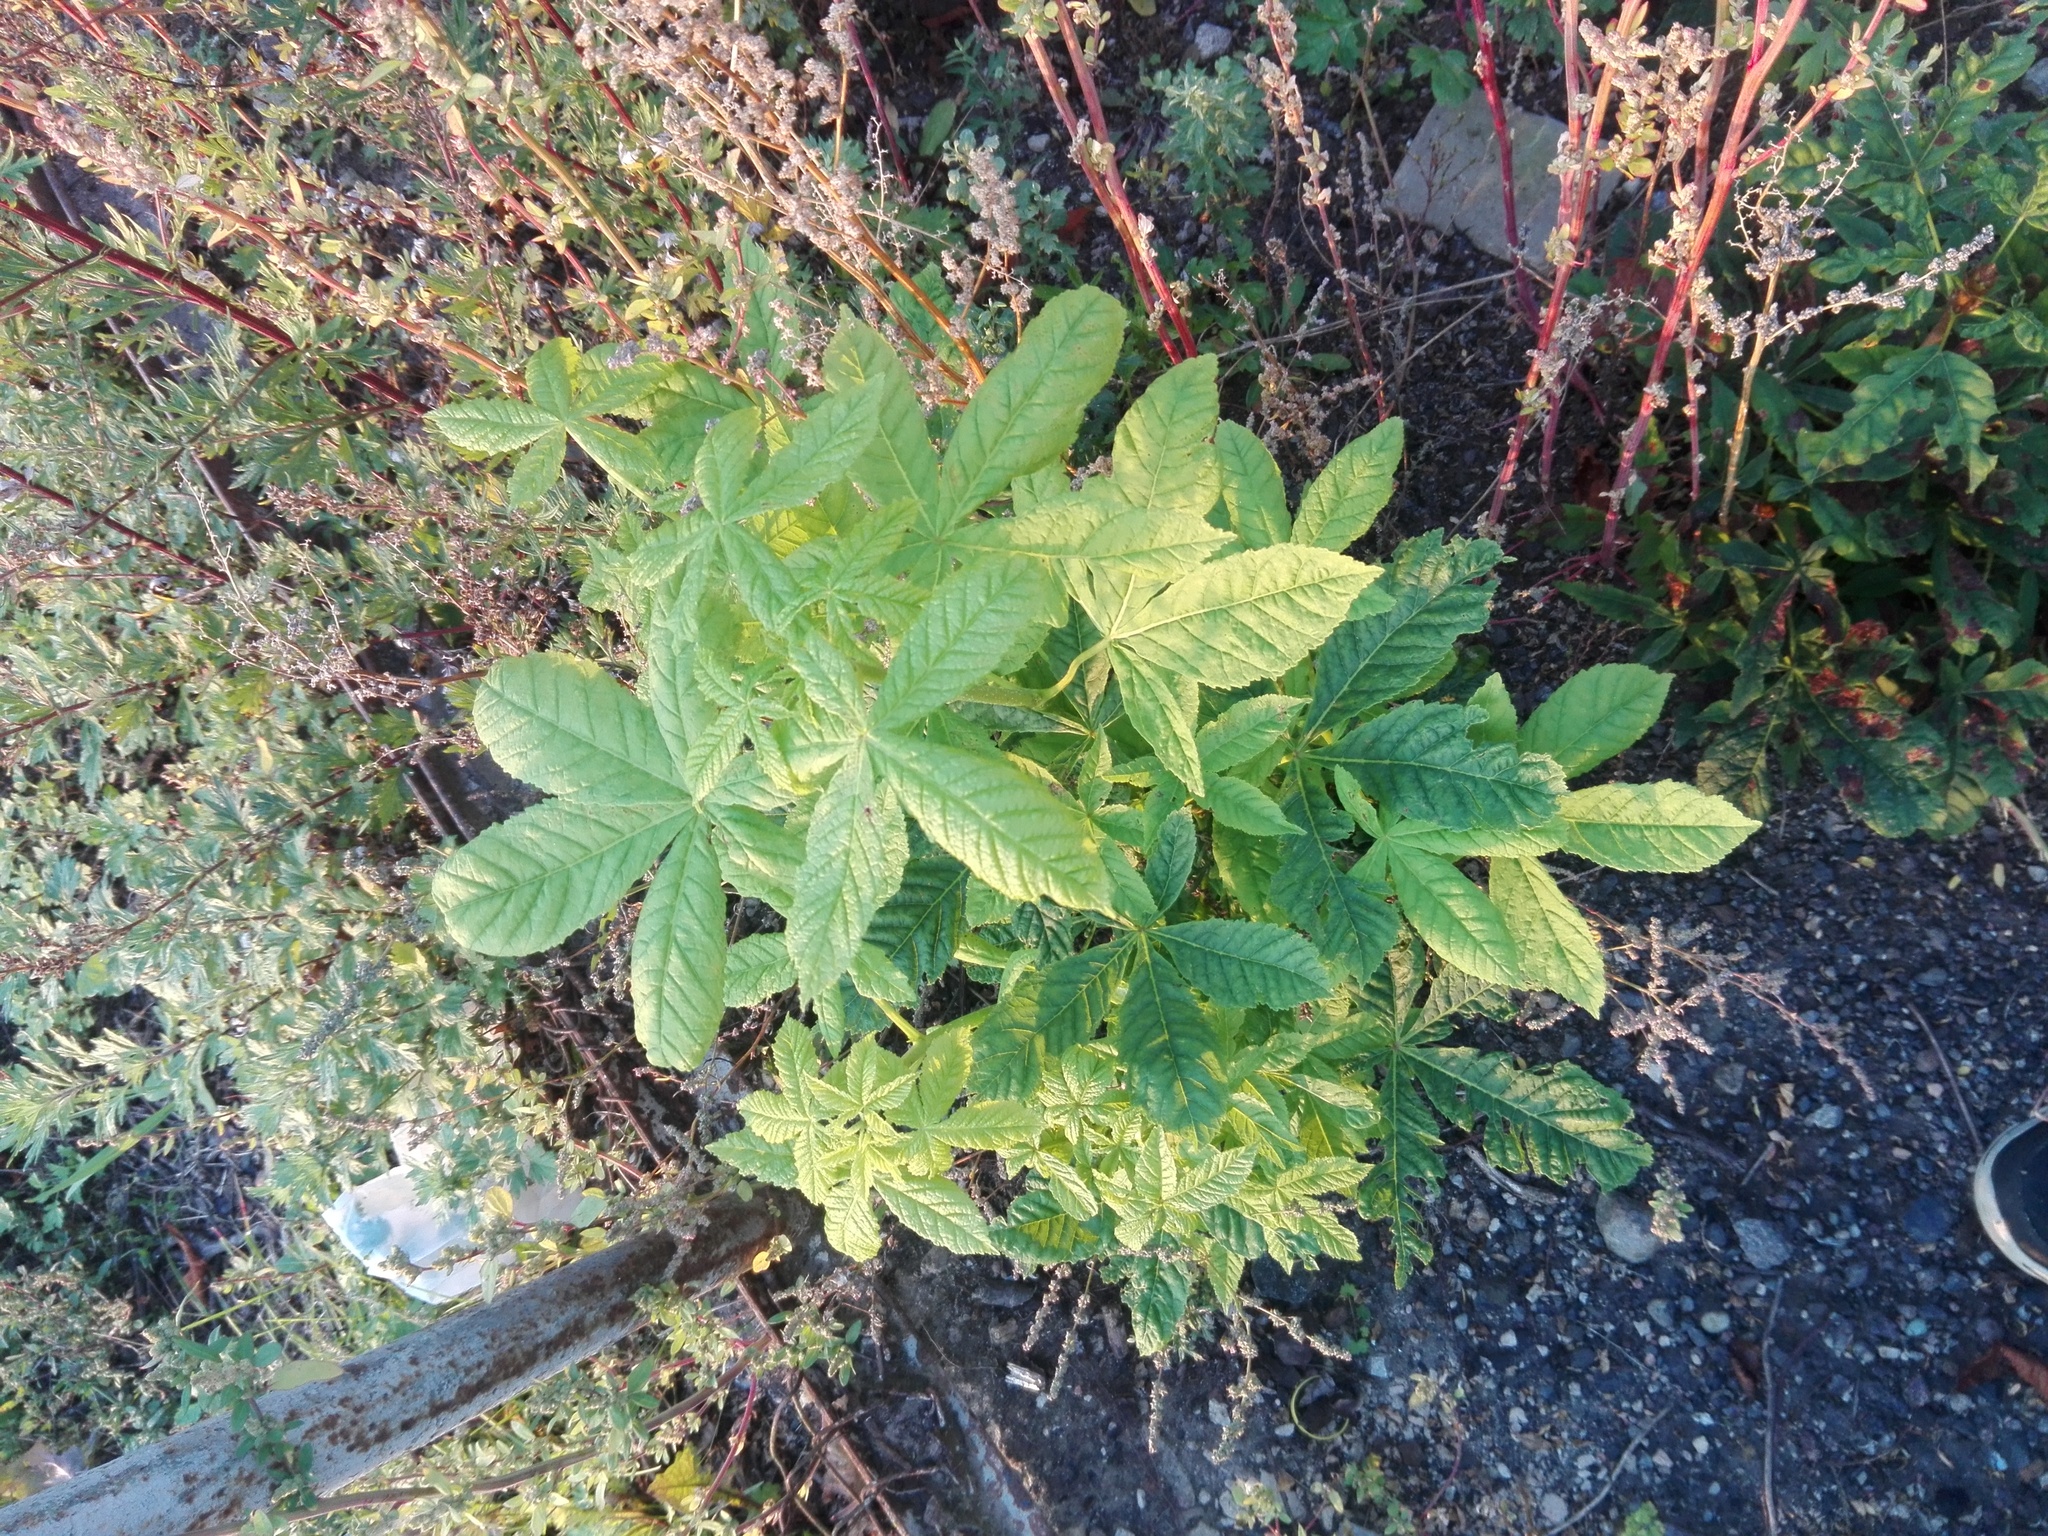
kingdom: Plantae
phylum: Tracheophyta
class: Magnoliopsida
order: Sapindales
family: Sapindaceae
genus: Aesculus
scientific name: Aesculus hippocastanum
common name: Horse-chestnut
